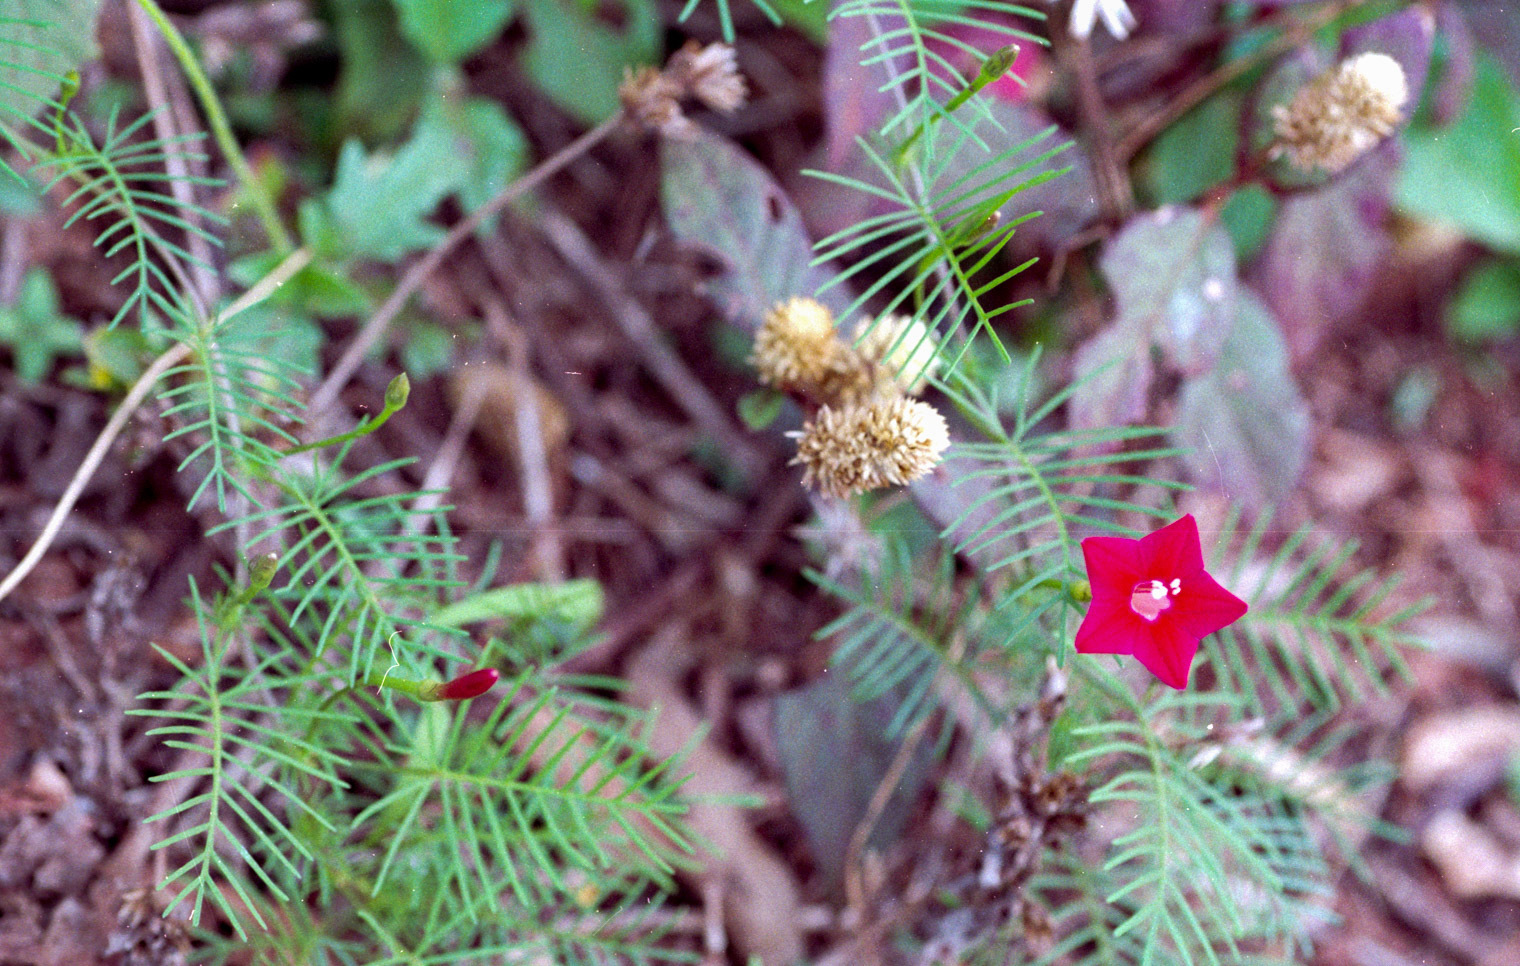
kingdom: Plantae
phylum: Tracheophyta
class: Magnoliopsida
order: Solanales
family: Convolvulaceae
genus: Ipomoea
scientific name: Ipomoea quamoclit
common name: Cypress vine
